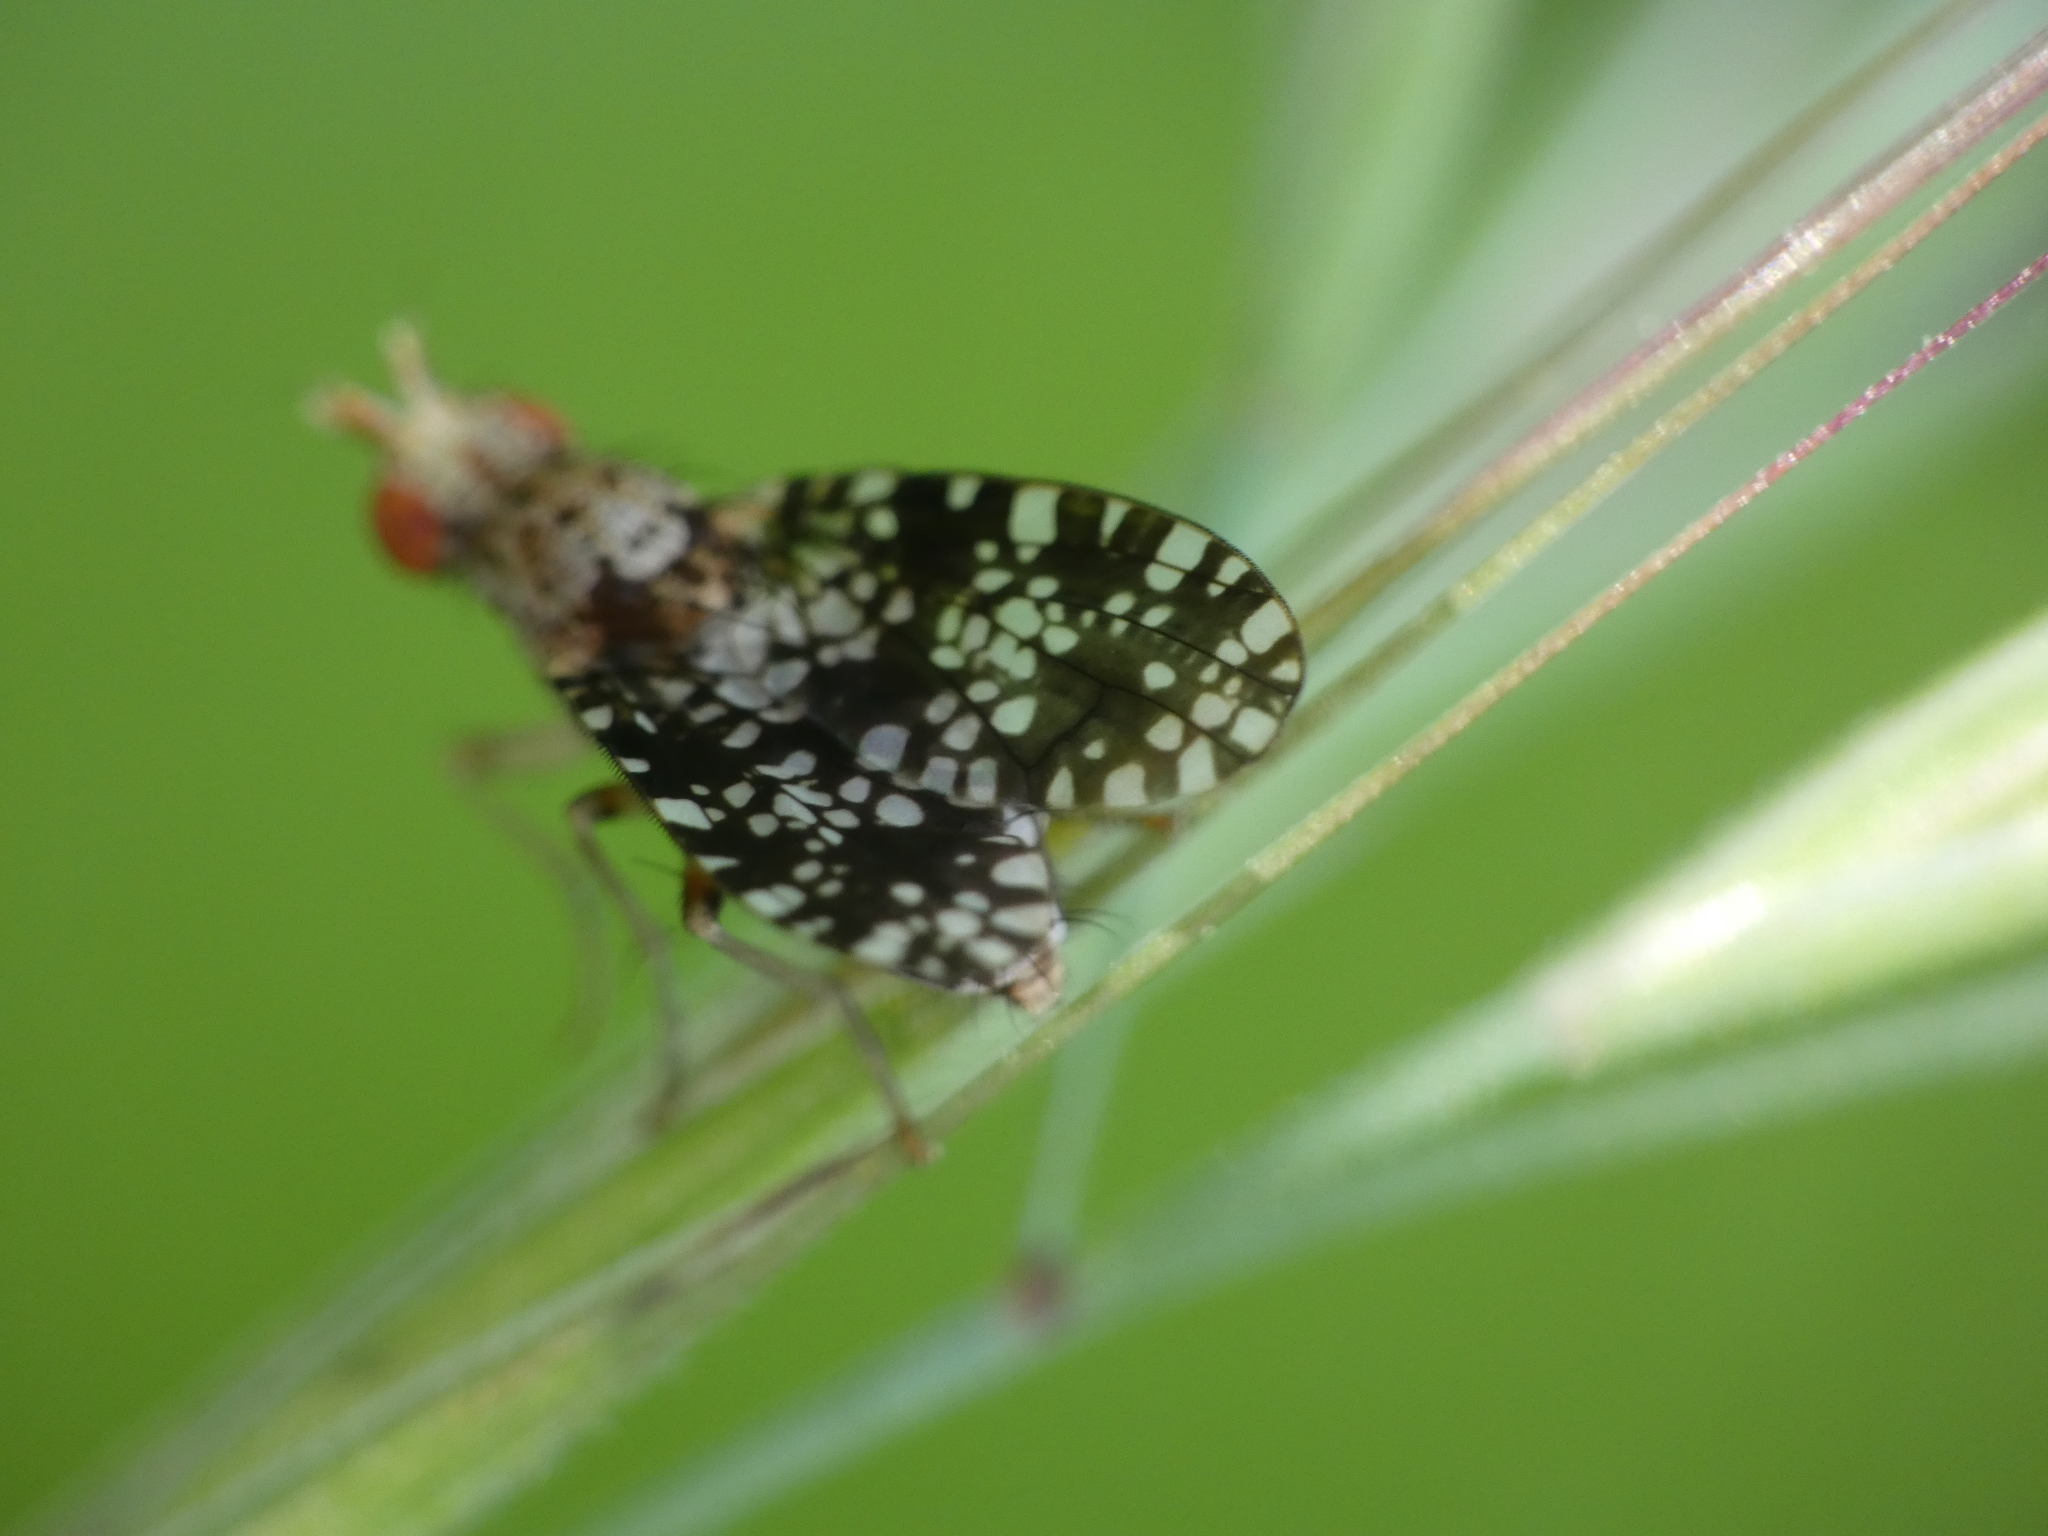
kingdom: Animalia
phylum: Arthropoda
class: Insecta
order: Diptera
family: Sciomyzidae
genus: Trypetoptera
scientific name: Trypetoptera punctulata
